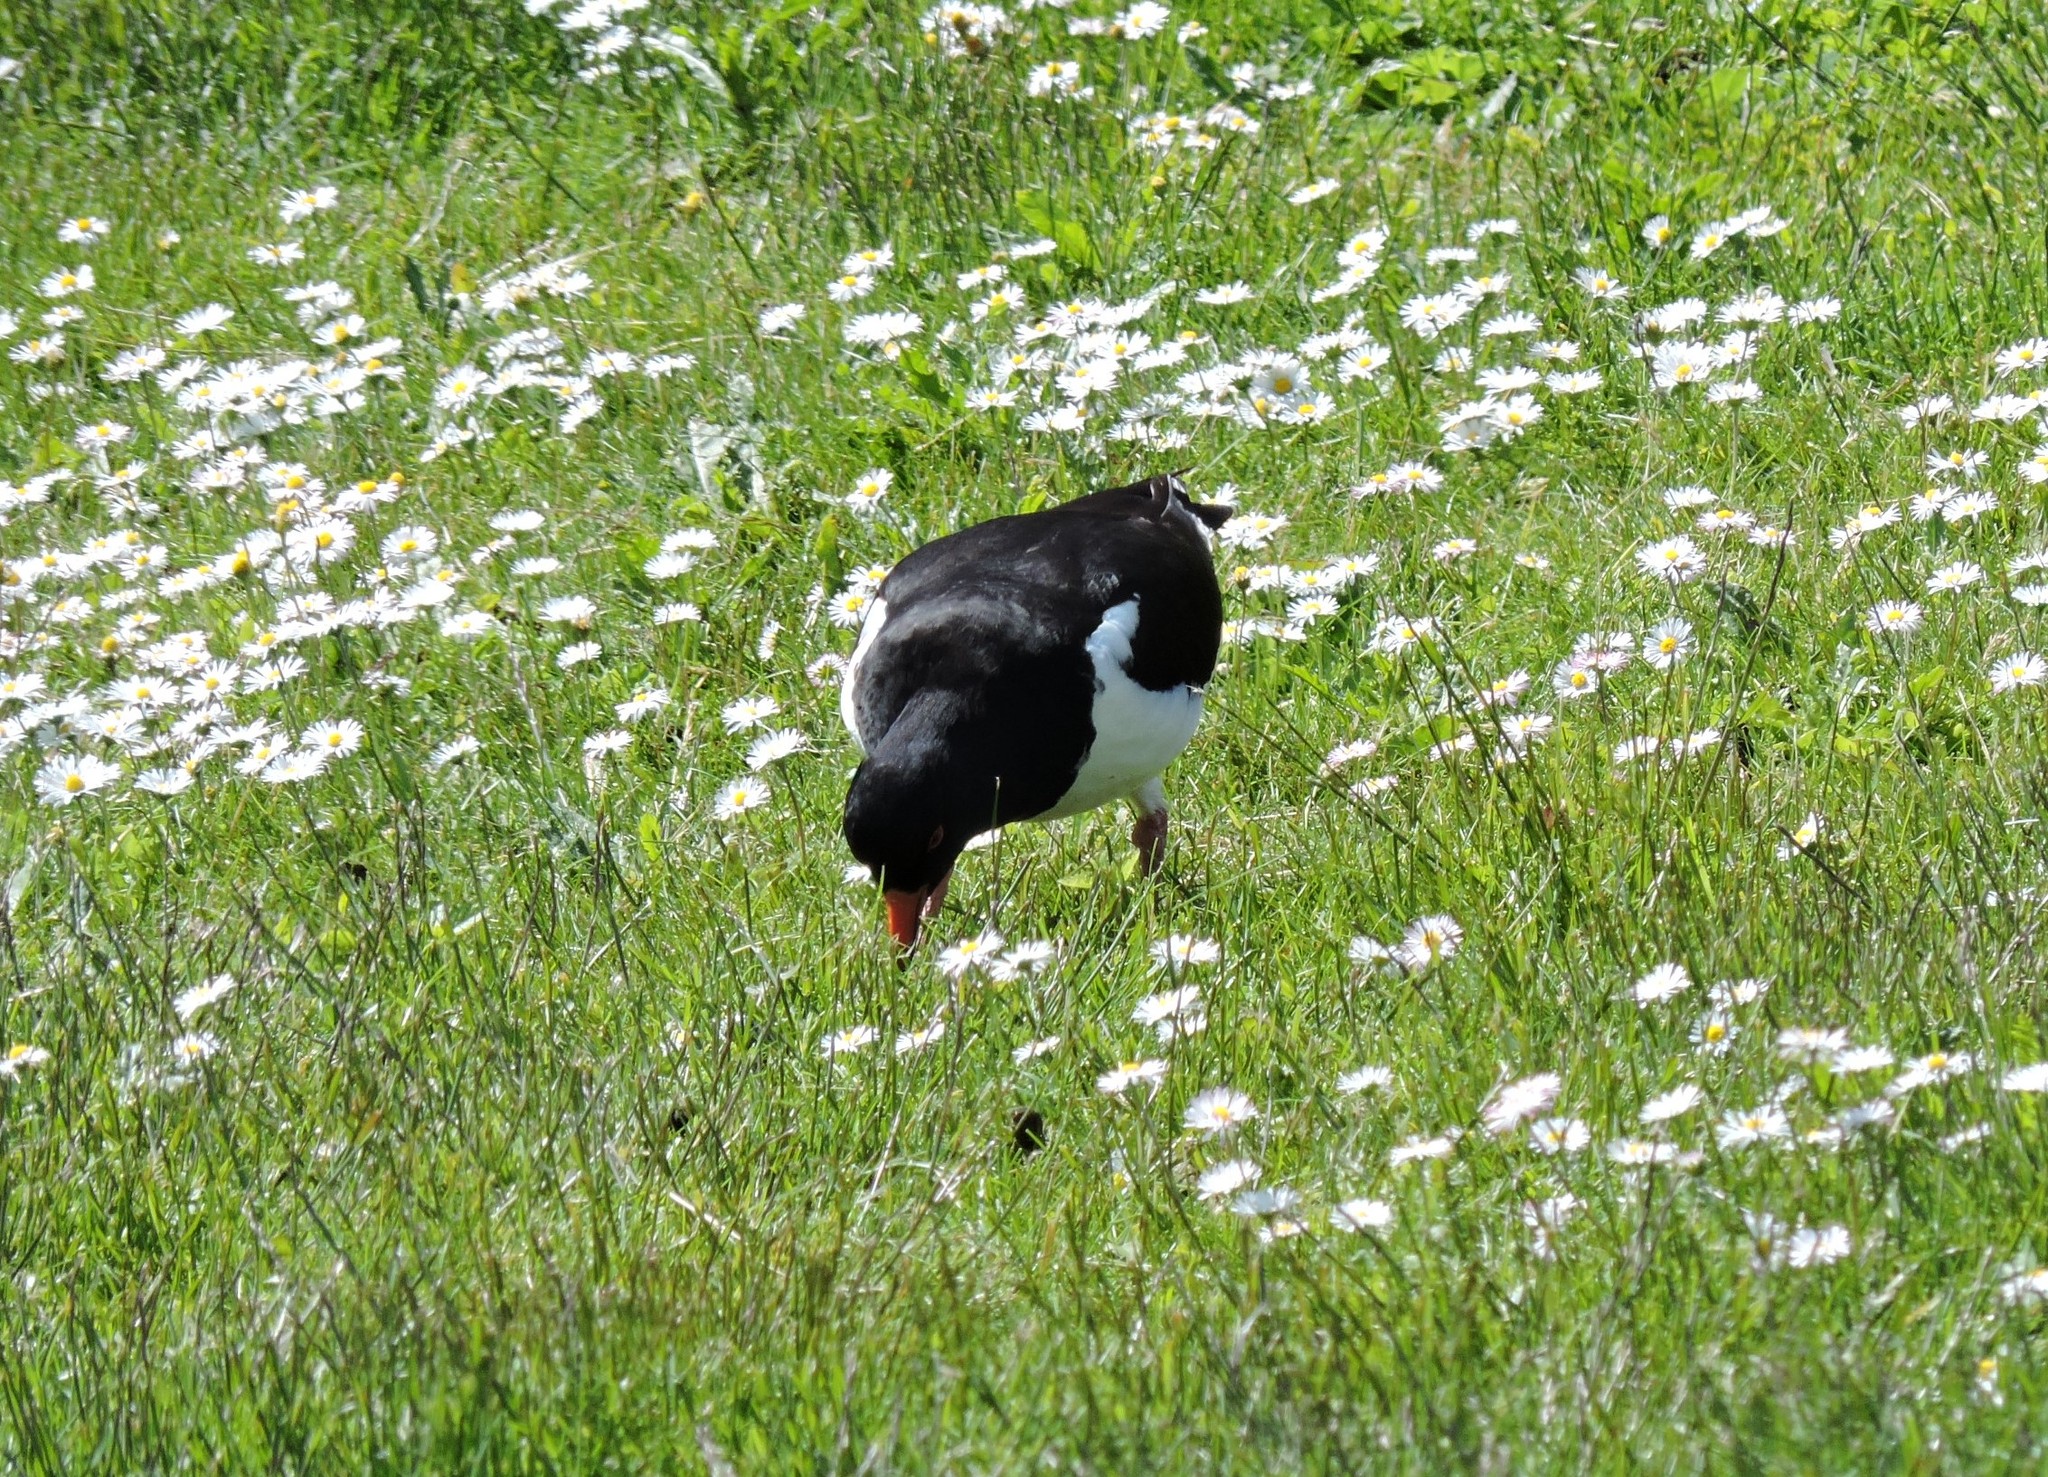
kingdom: Animalia
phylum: Chordata
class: Aves
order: Charadriiformes
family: Haematopodidae
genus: Haematopus
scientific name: Haematopus ostralegus
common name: Eurasian oystercatcher
